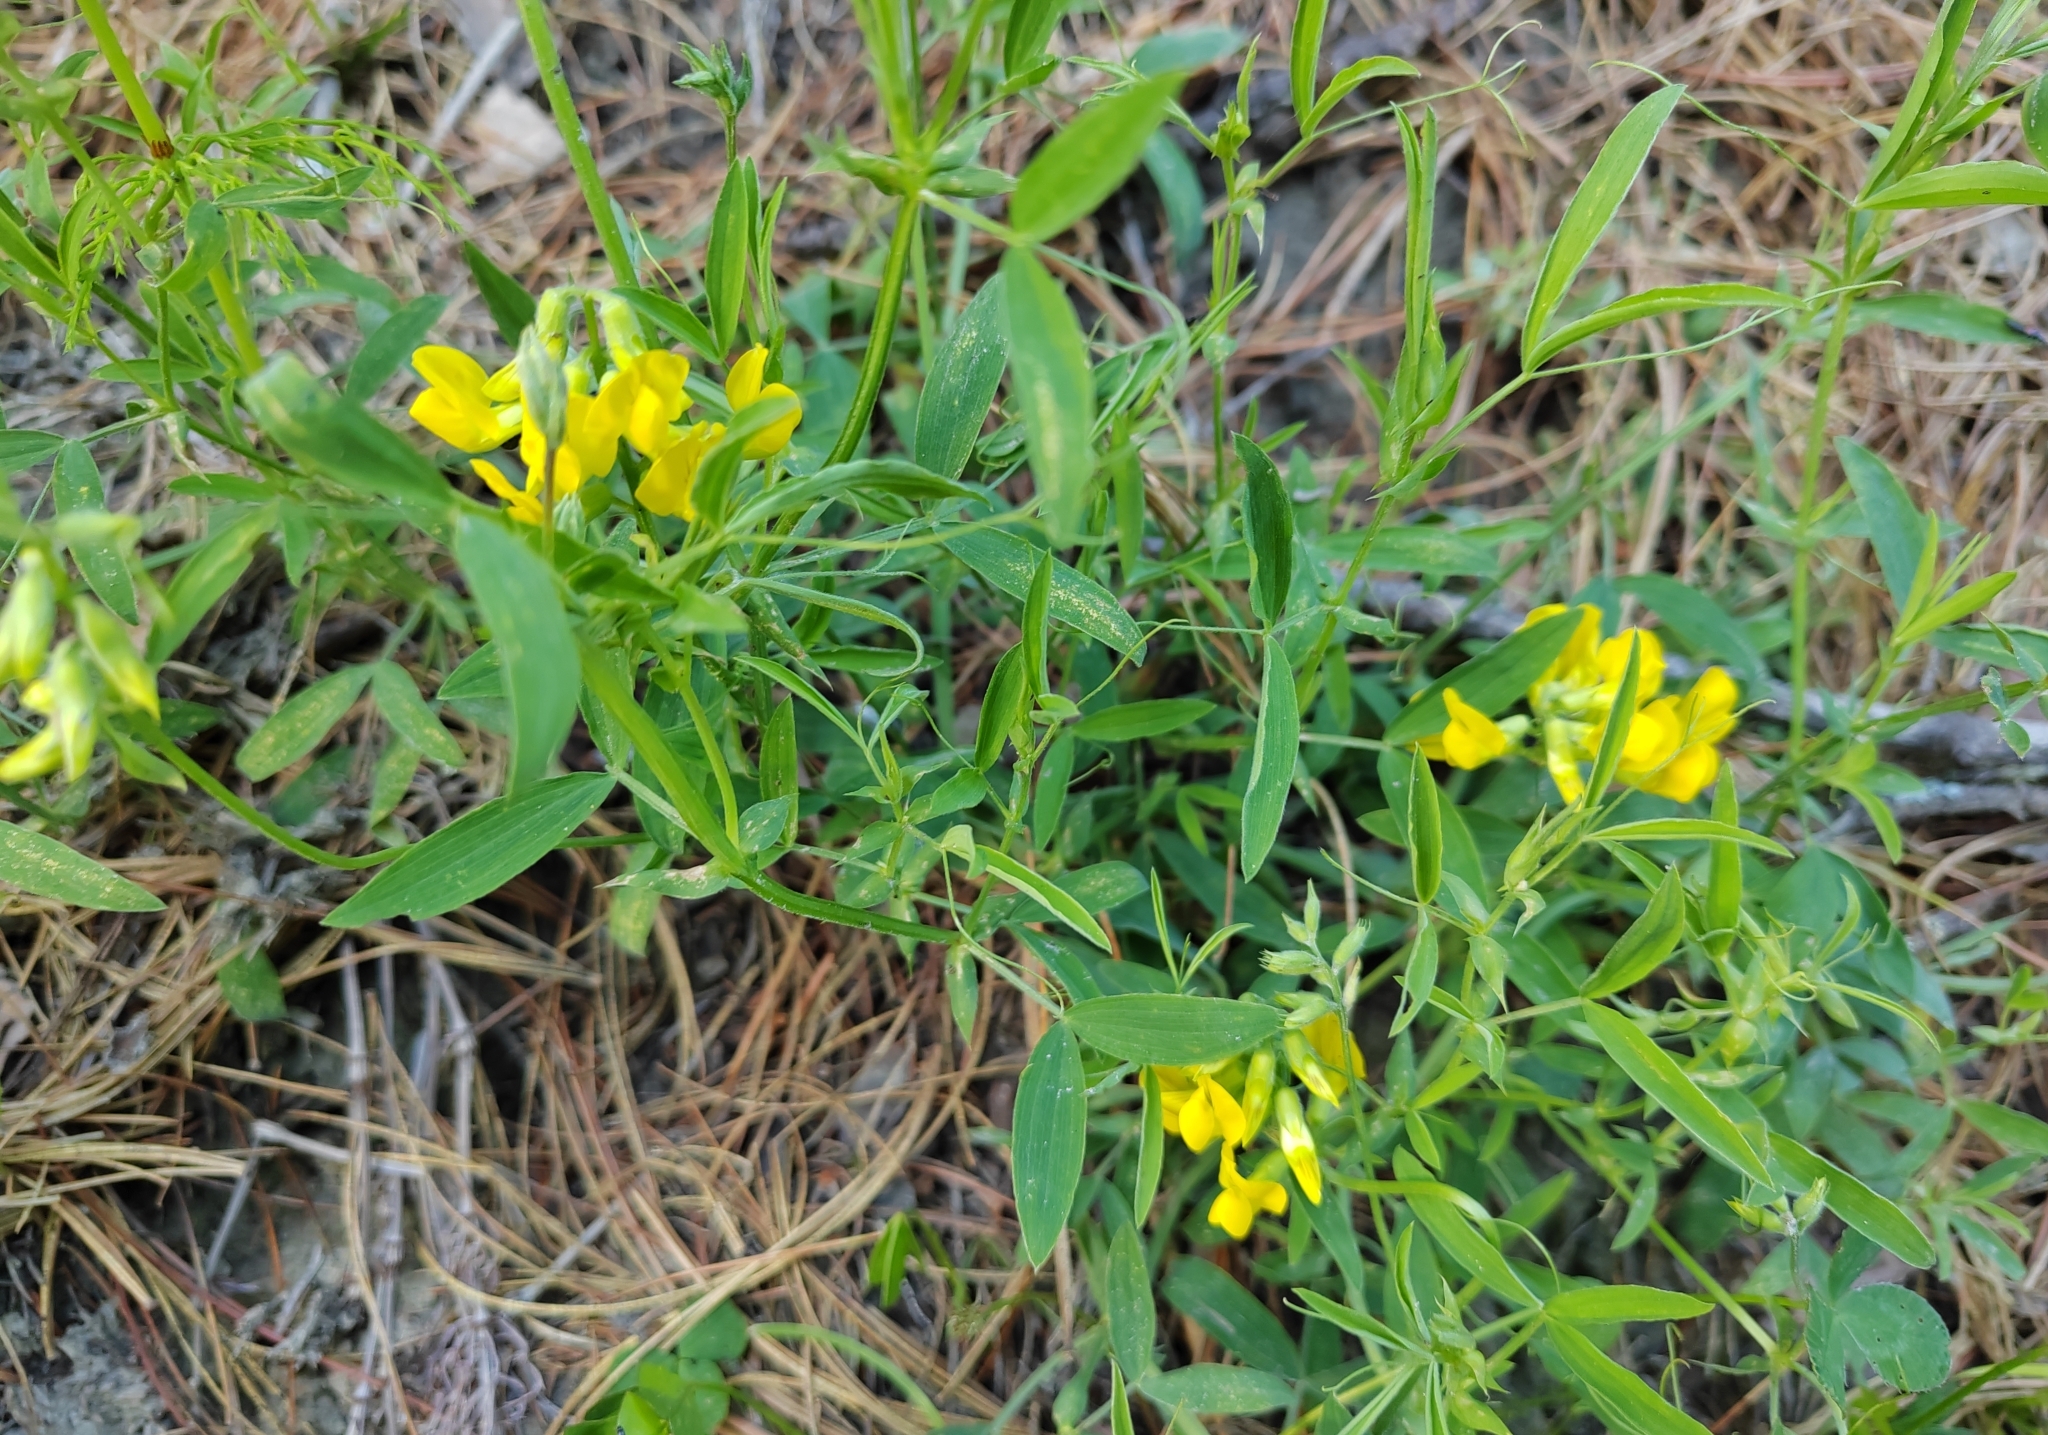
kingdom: Plantae
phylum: Tracheophyta
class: Magnoliopsida
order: Fabales
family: Fabaceae
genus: Lathyrus
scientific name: Lathyrus pratensis
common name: Meadow vetchling
